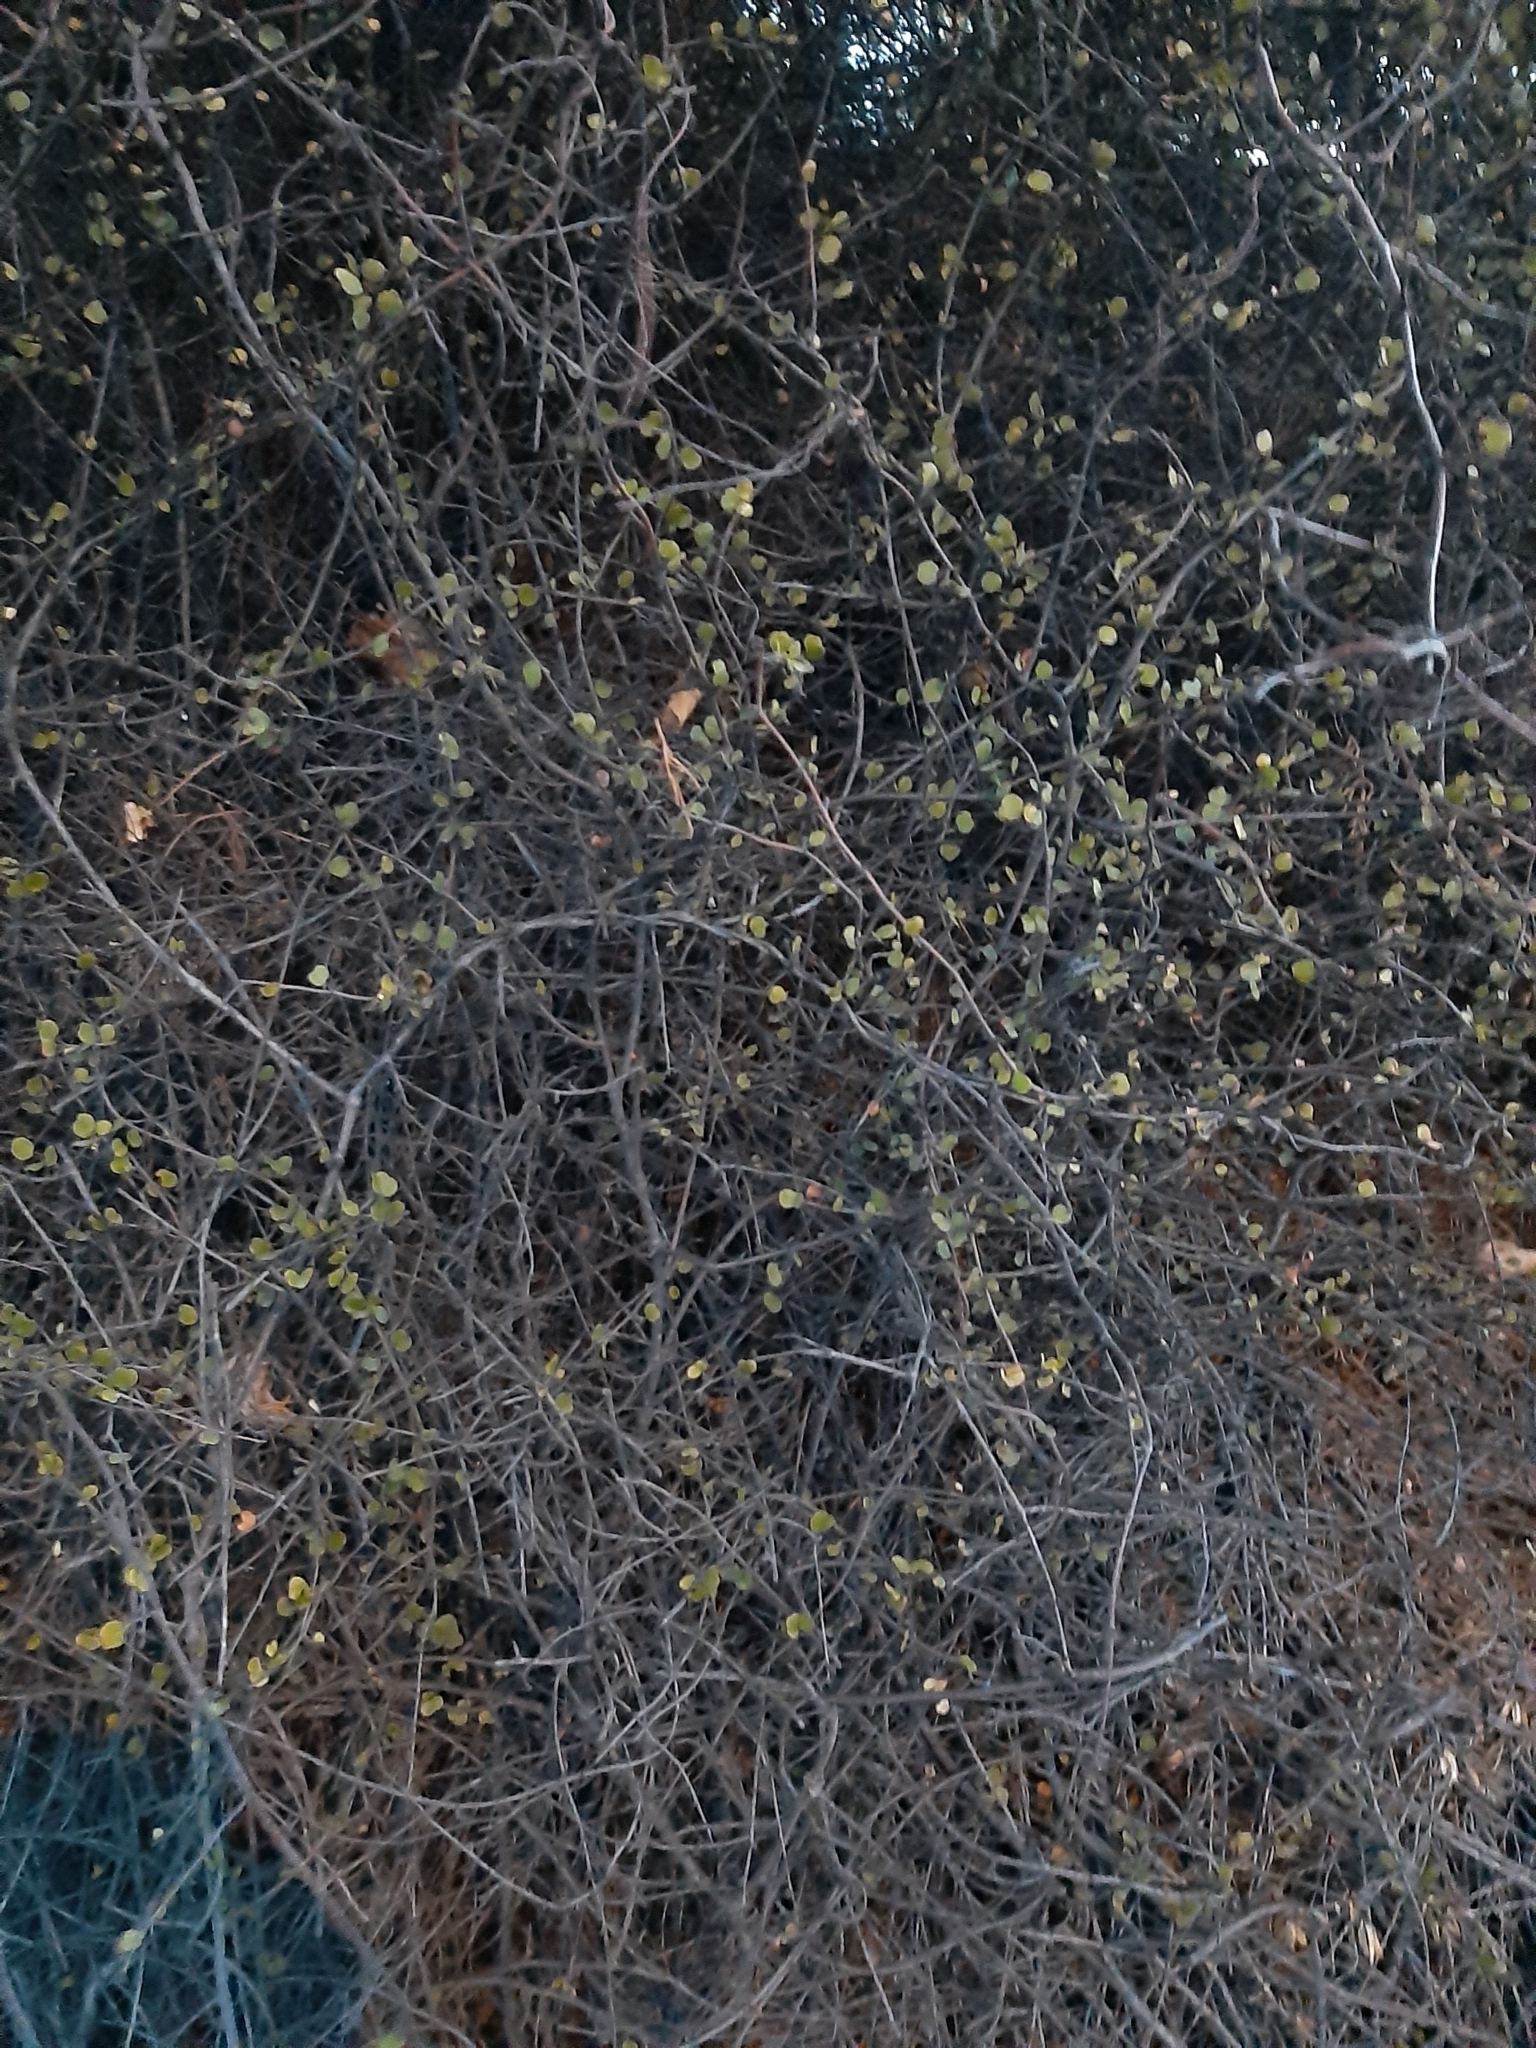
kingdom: Plantae
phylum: Tracheophyta
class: Magnoliopsida
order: Caryophyllales
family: Polygonaceae
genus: Muehlenbeckia
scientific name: Muehlenbeckia complexa
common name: Wireplant
